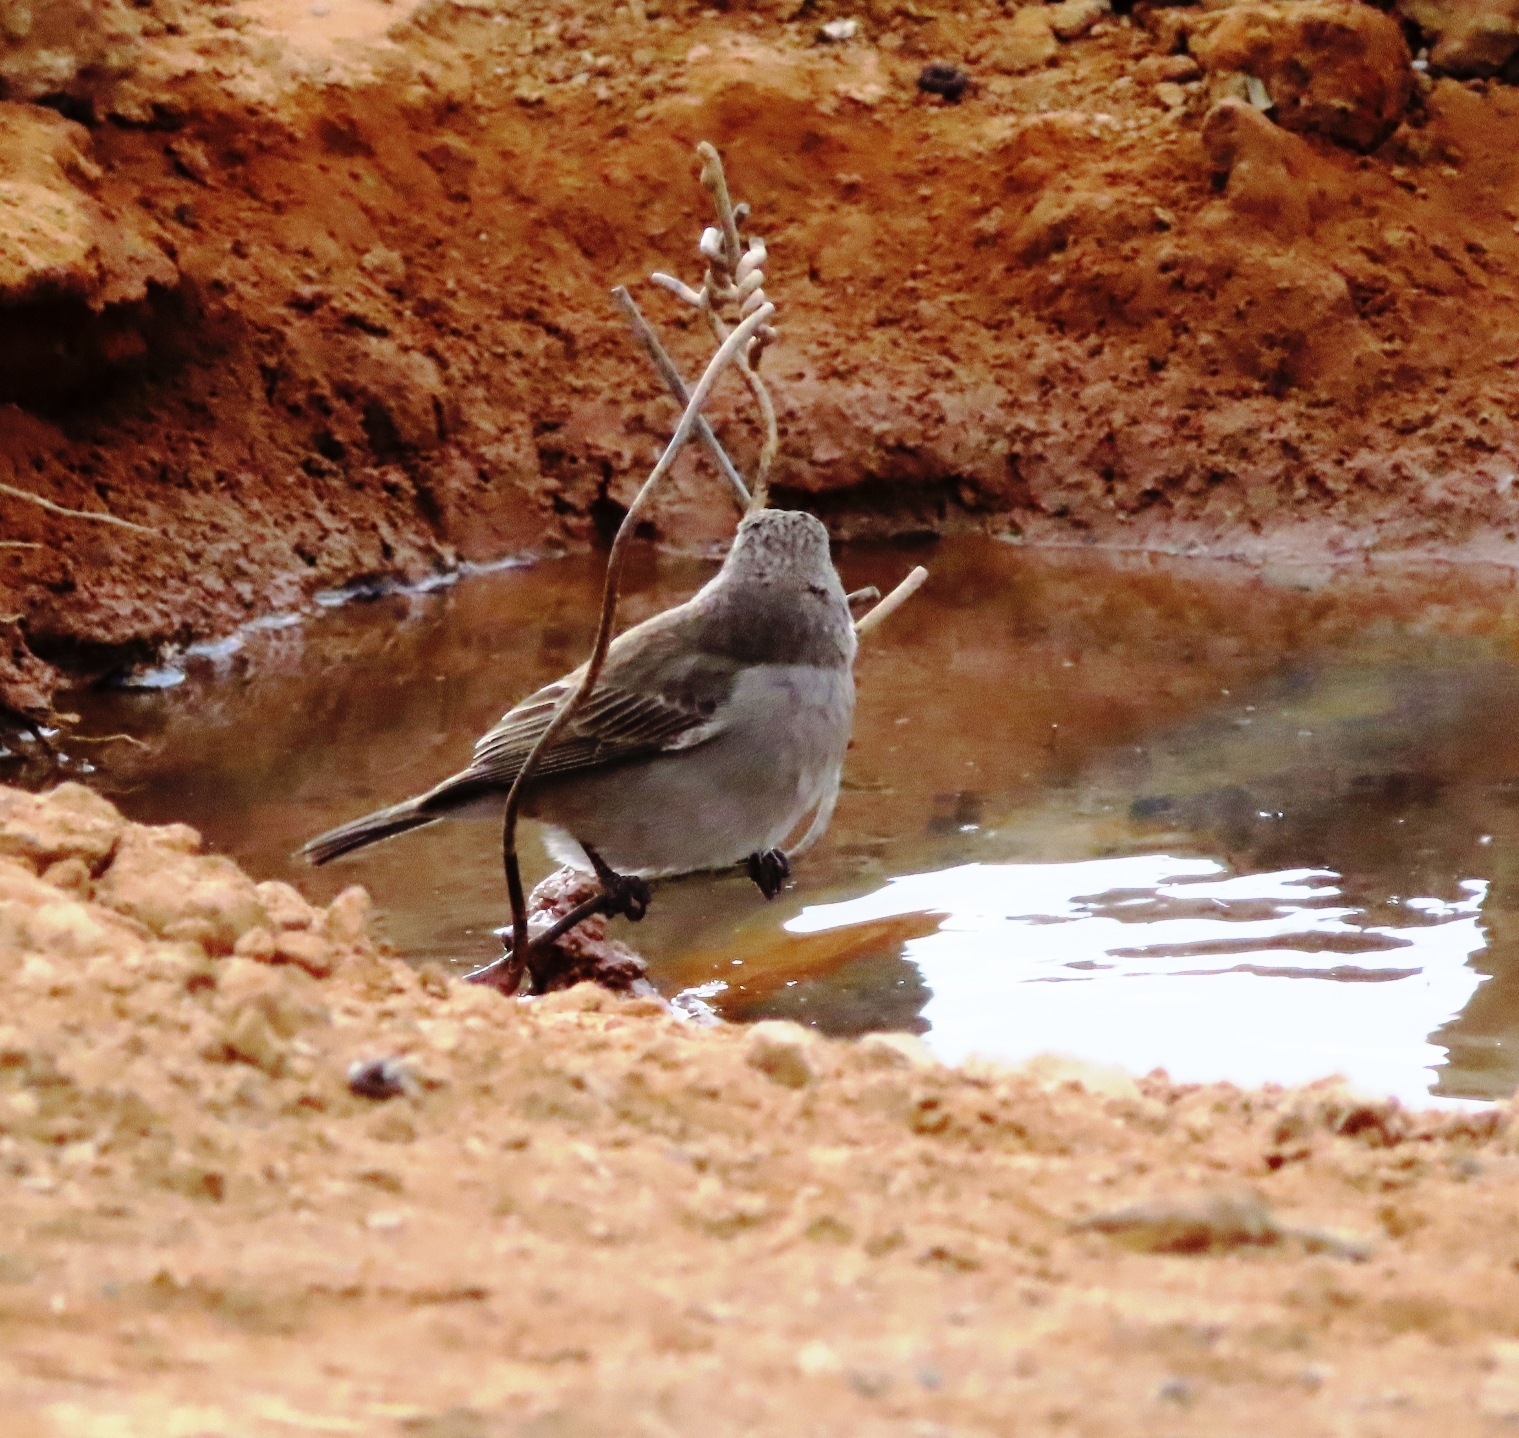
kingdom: Animalia
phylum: Chordata
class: Aves
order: Passeriformes
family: Fringillidae
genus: Crithagra
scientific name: Crithagra albogularis
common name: White-throated canary
